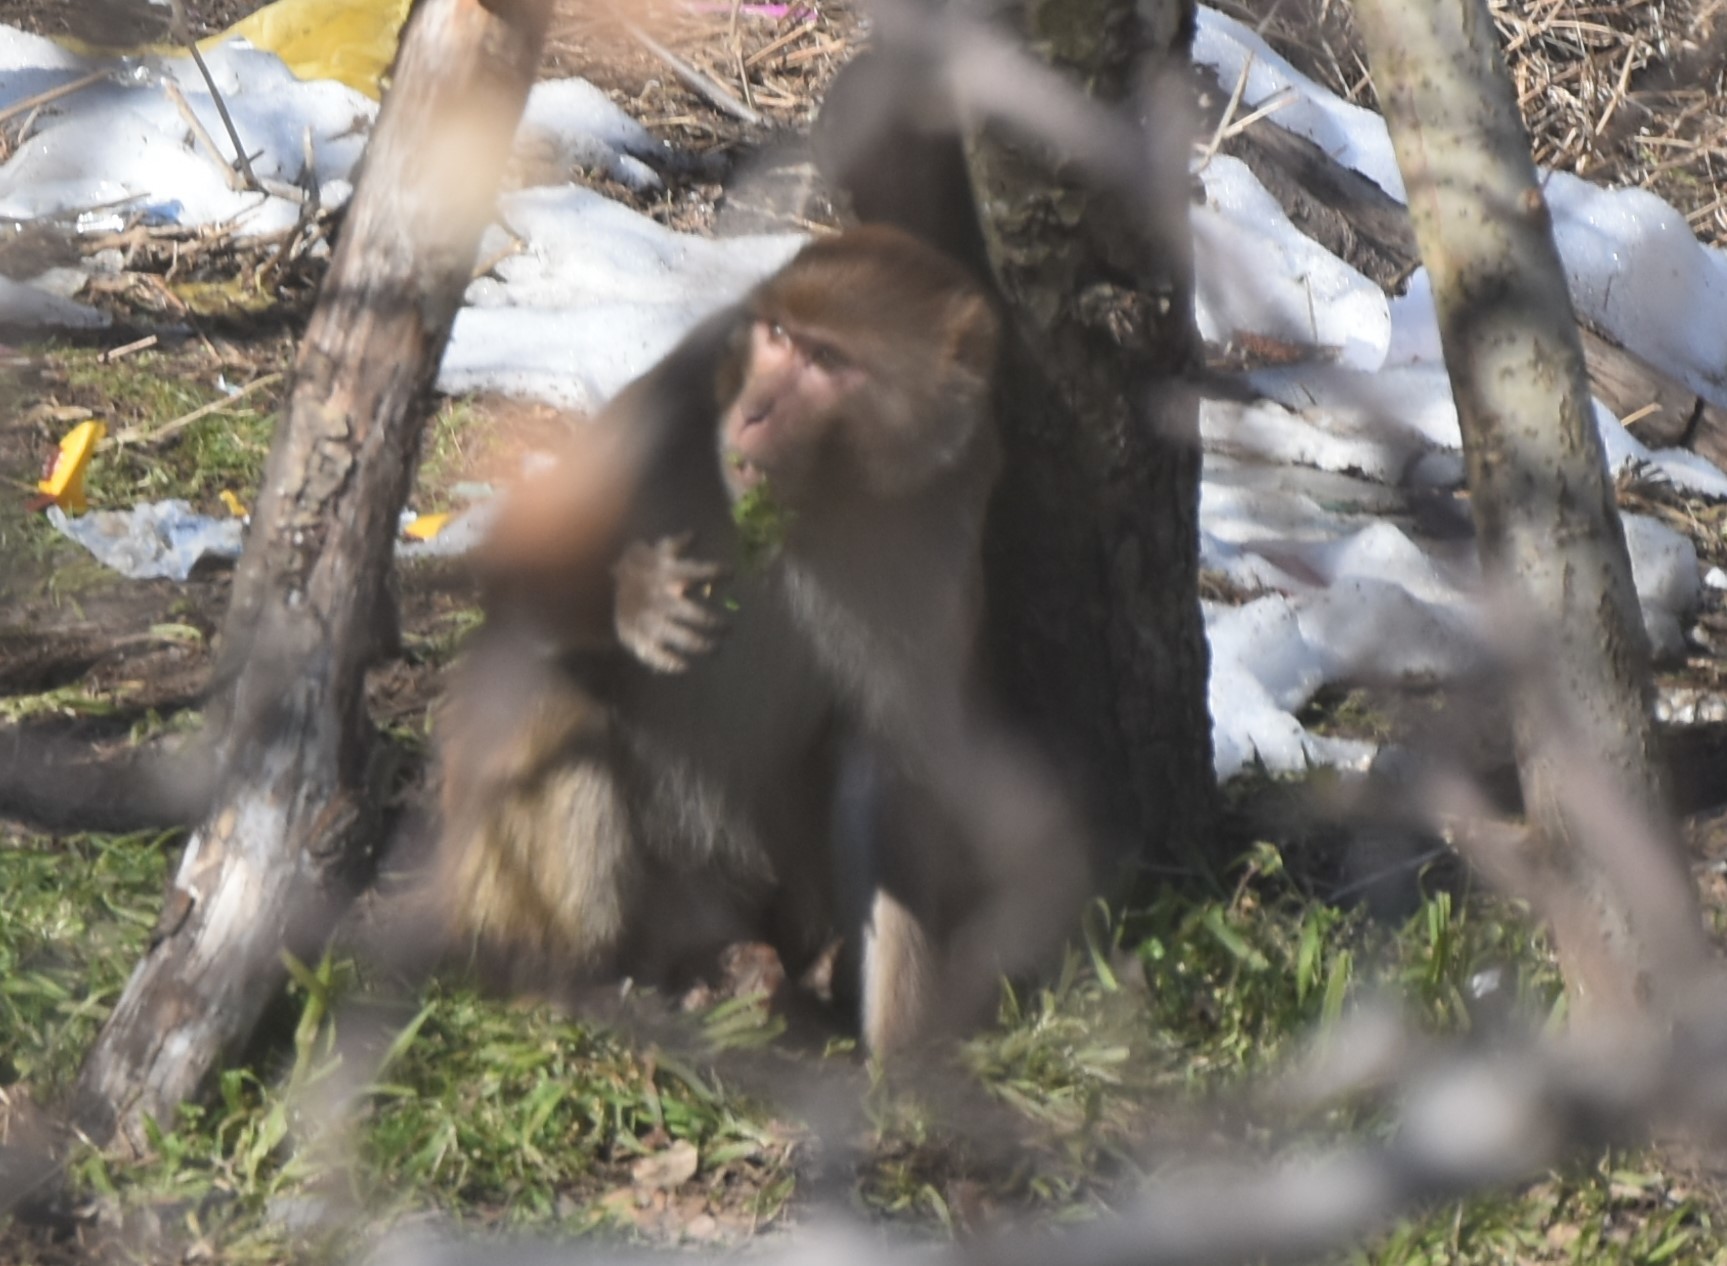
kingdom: Animalia
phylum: Chordata
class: Mammalia
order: Primates
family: Cercopithecidae
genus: Macaca
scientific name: Macaca mulatta
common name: Rhesus monkey
